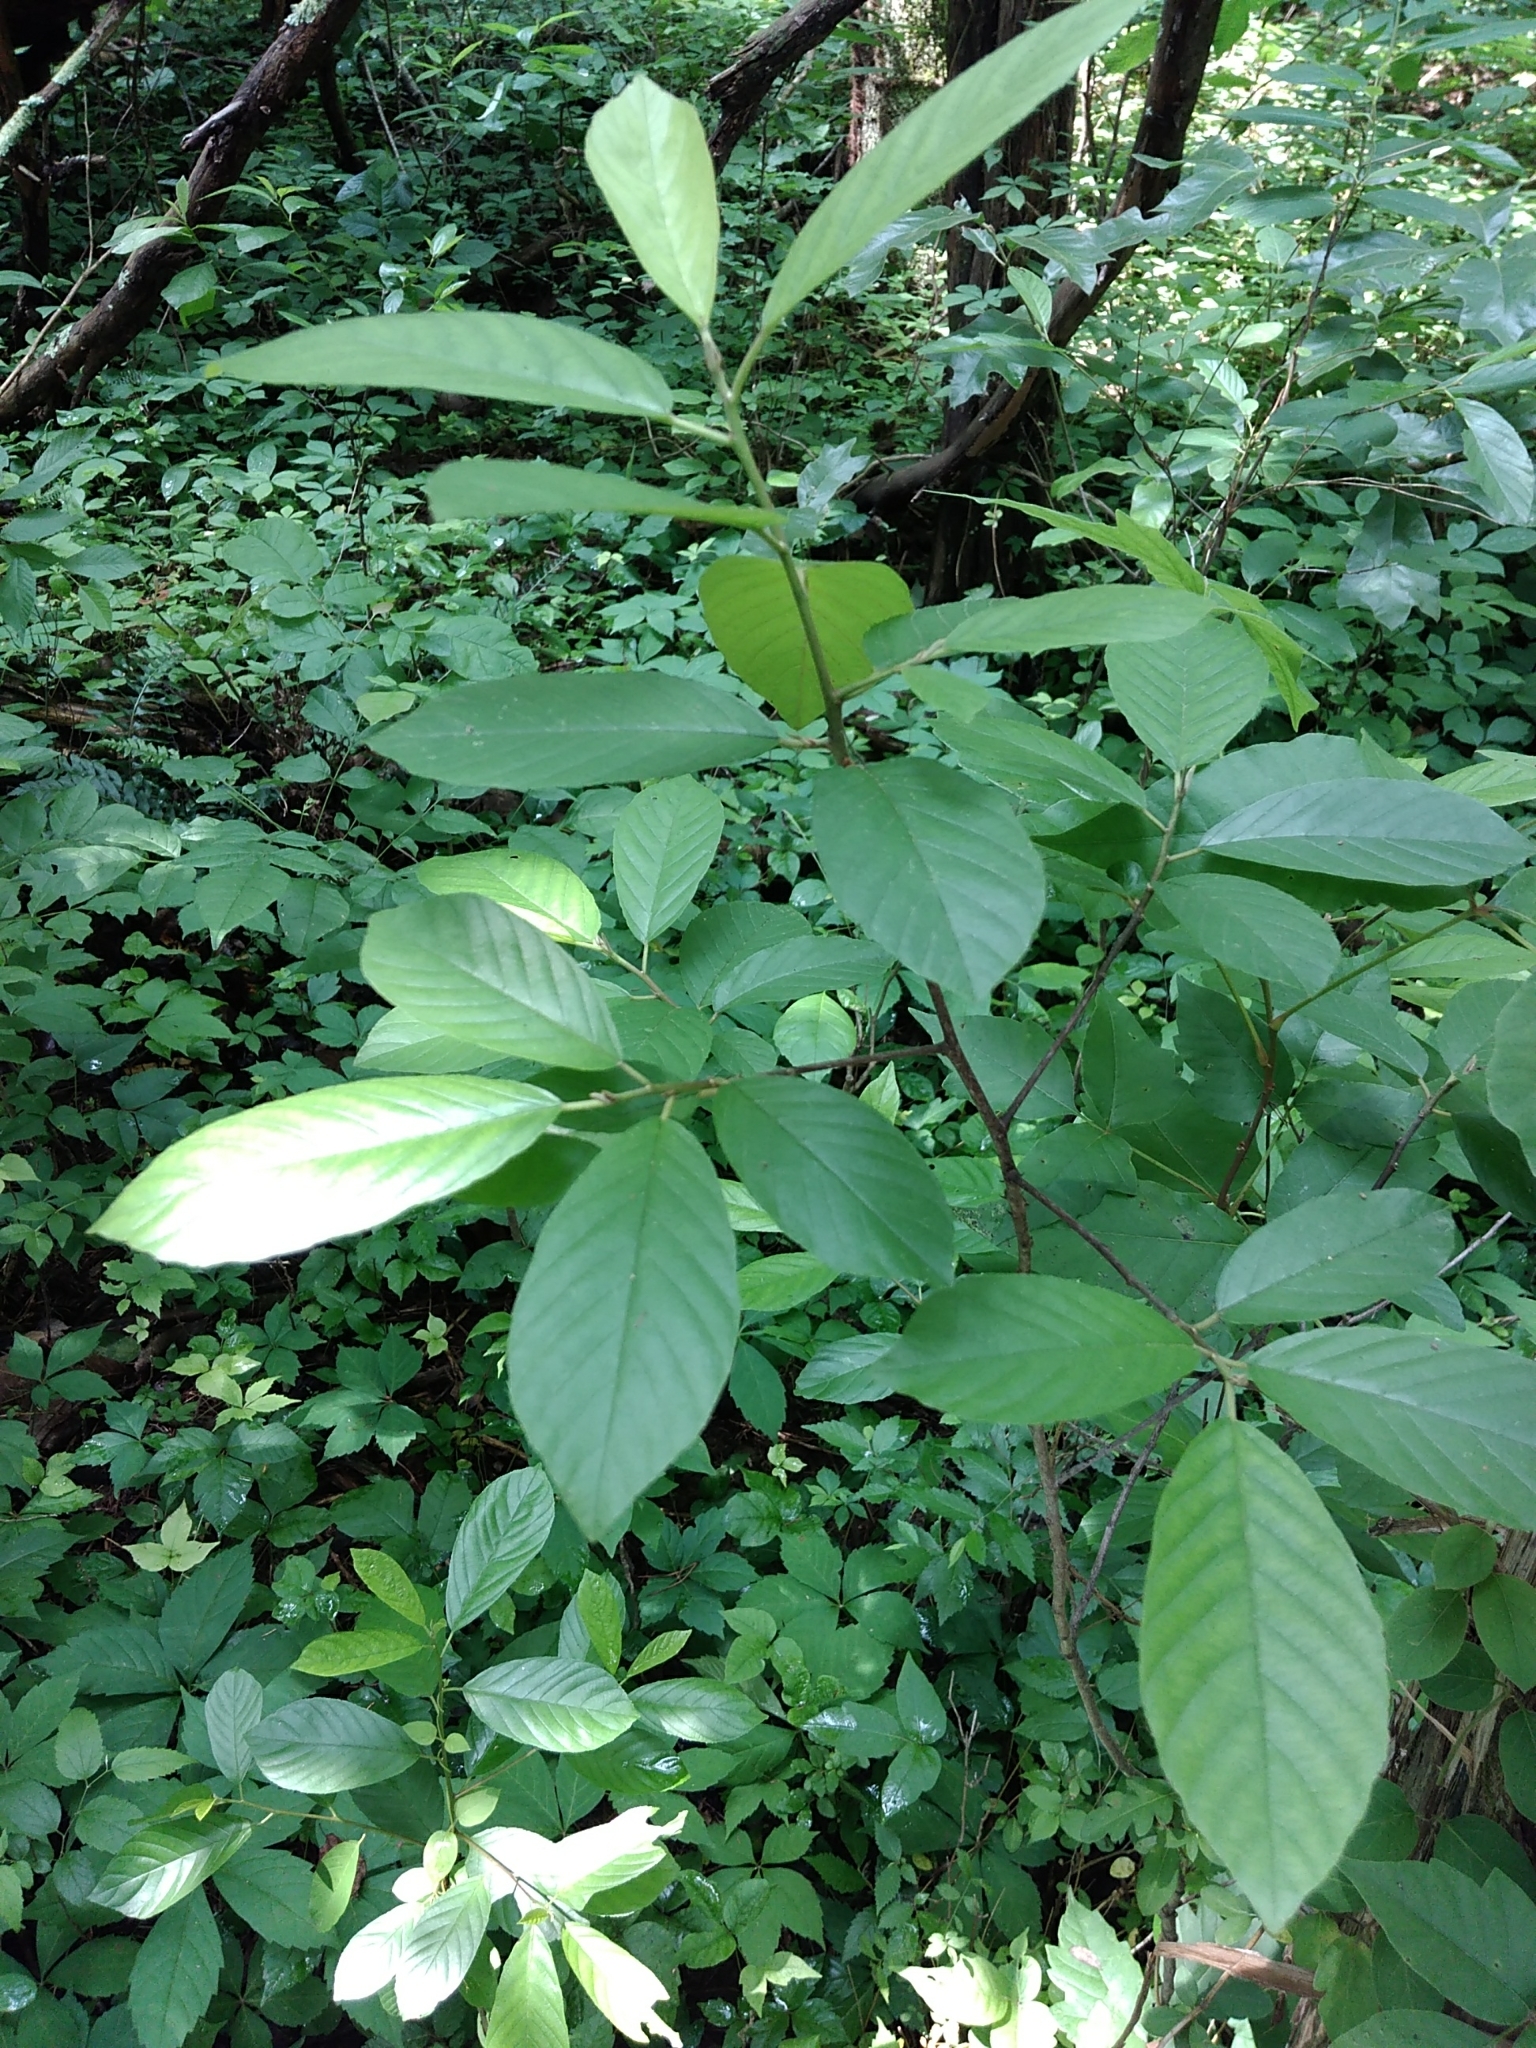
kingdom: Plantae
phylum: Tracheophyta
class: Magnoliopsida
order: Rosales
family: Rhamnaceae
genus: Frangula
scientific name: Frangula caroliniana
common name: Carolina buckthorn
